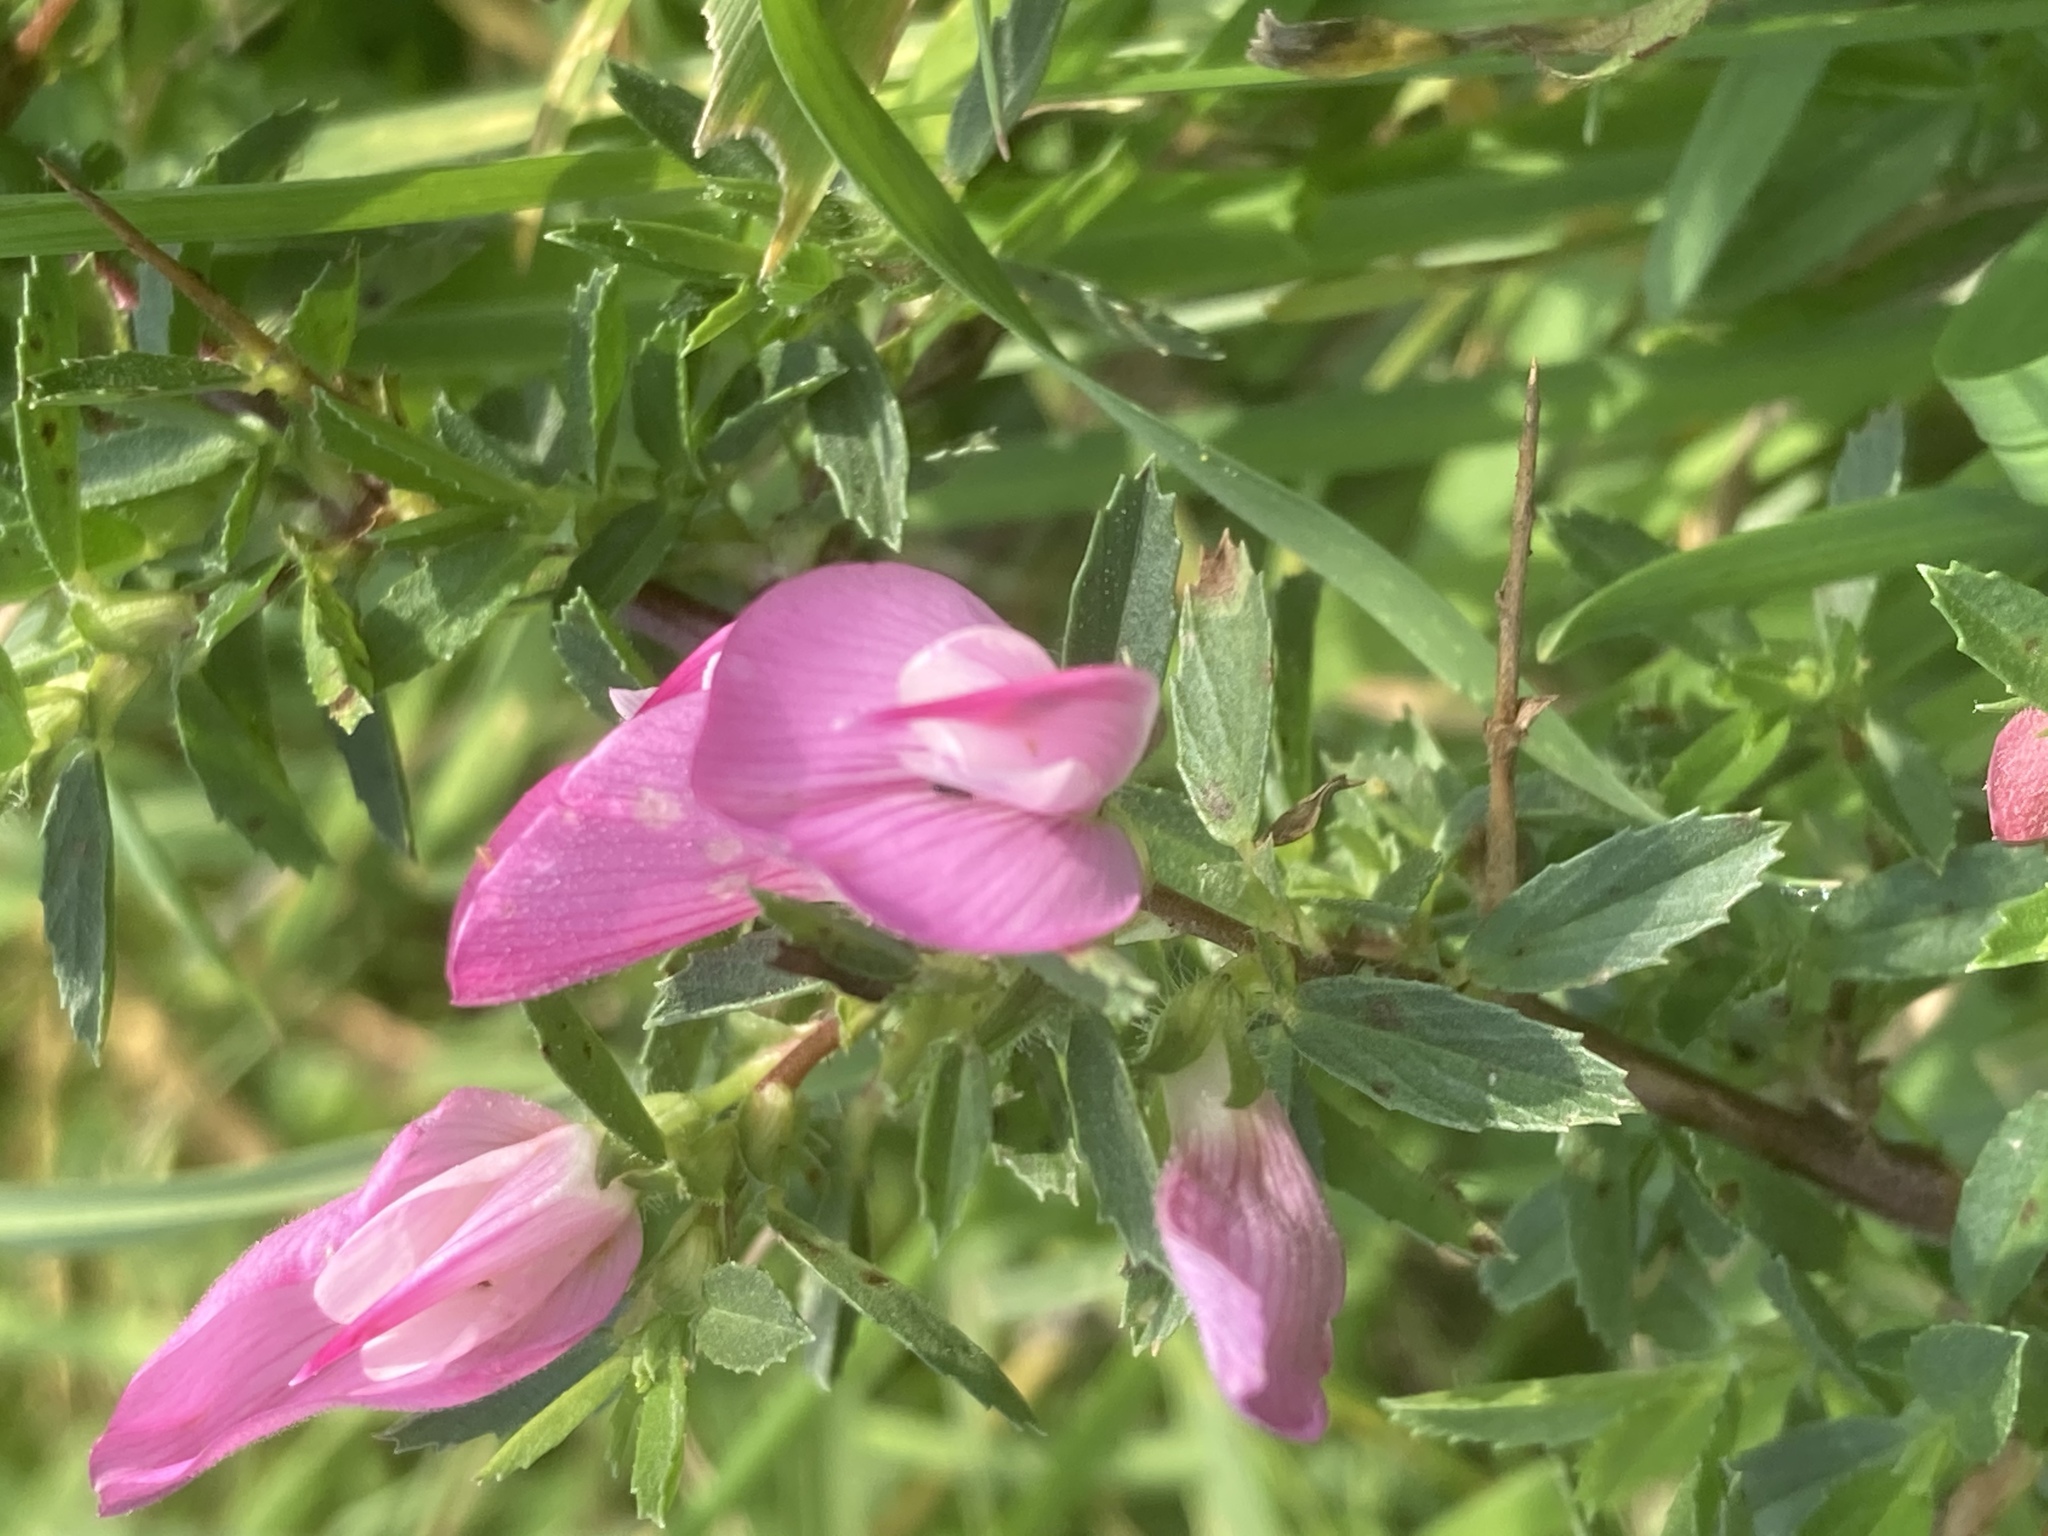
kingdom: Plantae
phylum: Tracheophyta
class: Magnoliopsida
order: Fabales
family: Fabaceae
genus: Ononis
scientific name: Ononis spinosa
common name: Spiny restharrow
